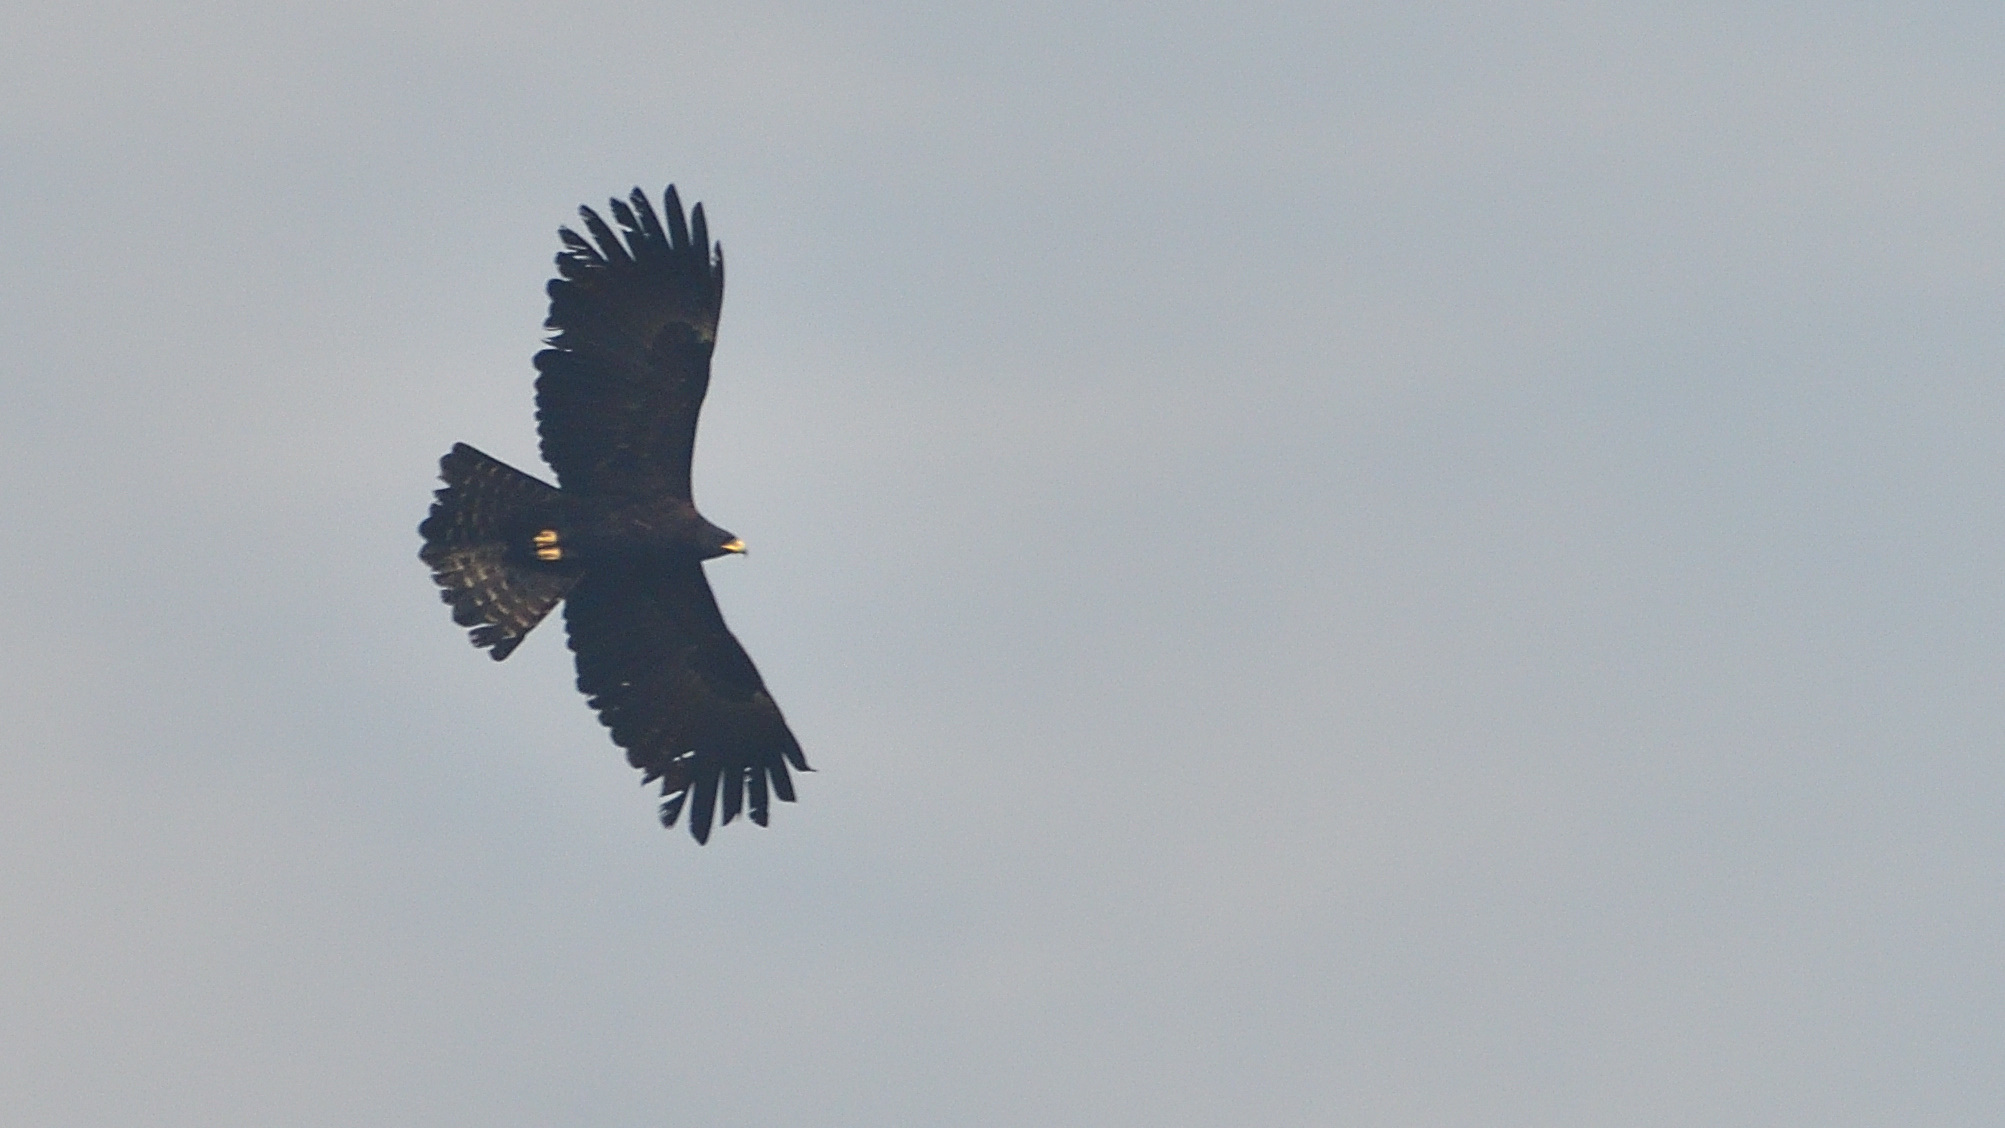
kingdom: Animalia
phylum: Chordata
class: Aves
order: Accipitriformes
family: Accipitridae
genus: Ictinaetus
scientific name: Ictinaetus malayensis
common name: Black eagle
